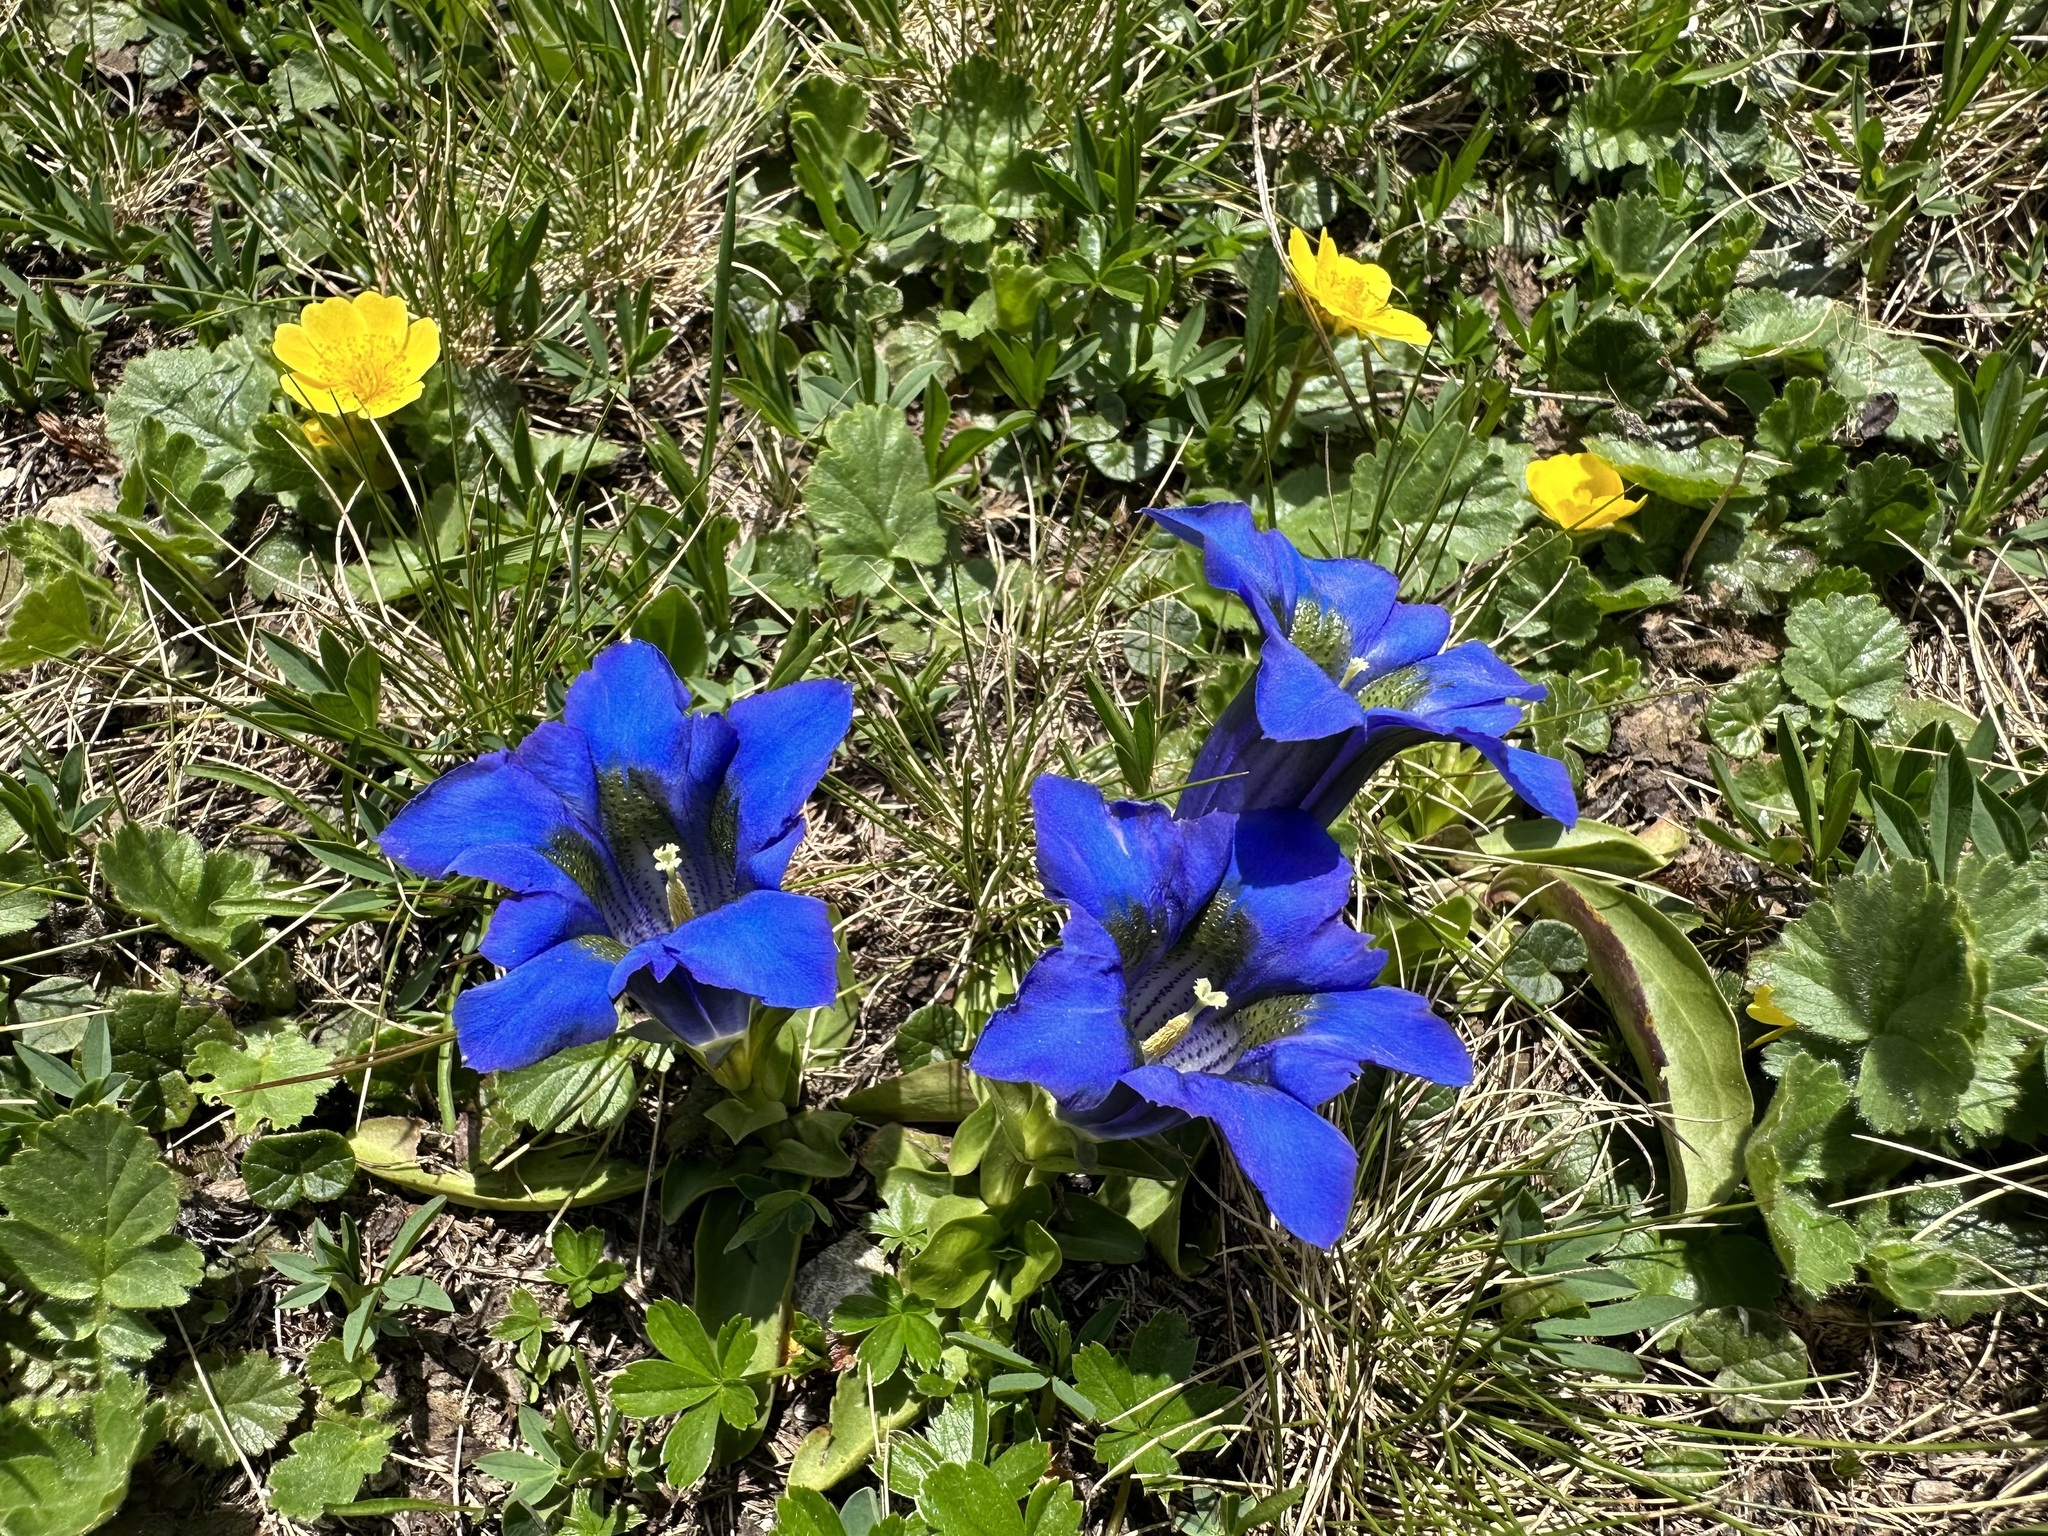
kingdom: Plantae
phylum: Tracheophyta
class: Magnoliopsida
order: Gentianales
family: Gentianaceae
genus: Gentiana
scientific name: Gentiana acaulis
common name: Trumpet gentian
